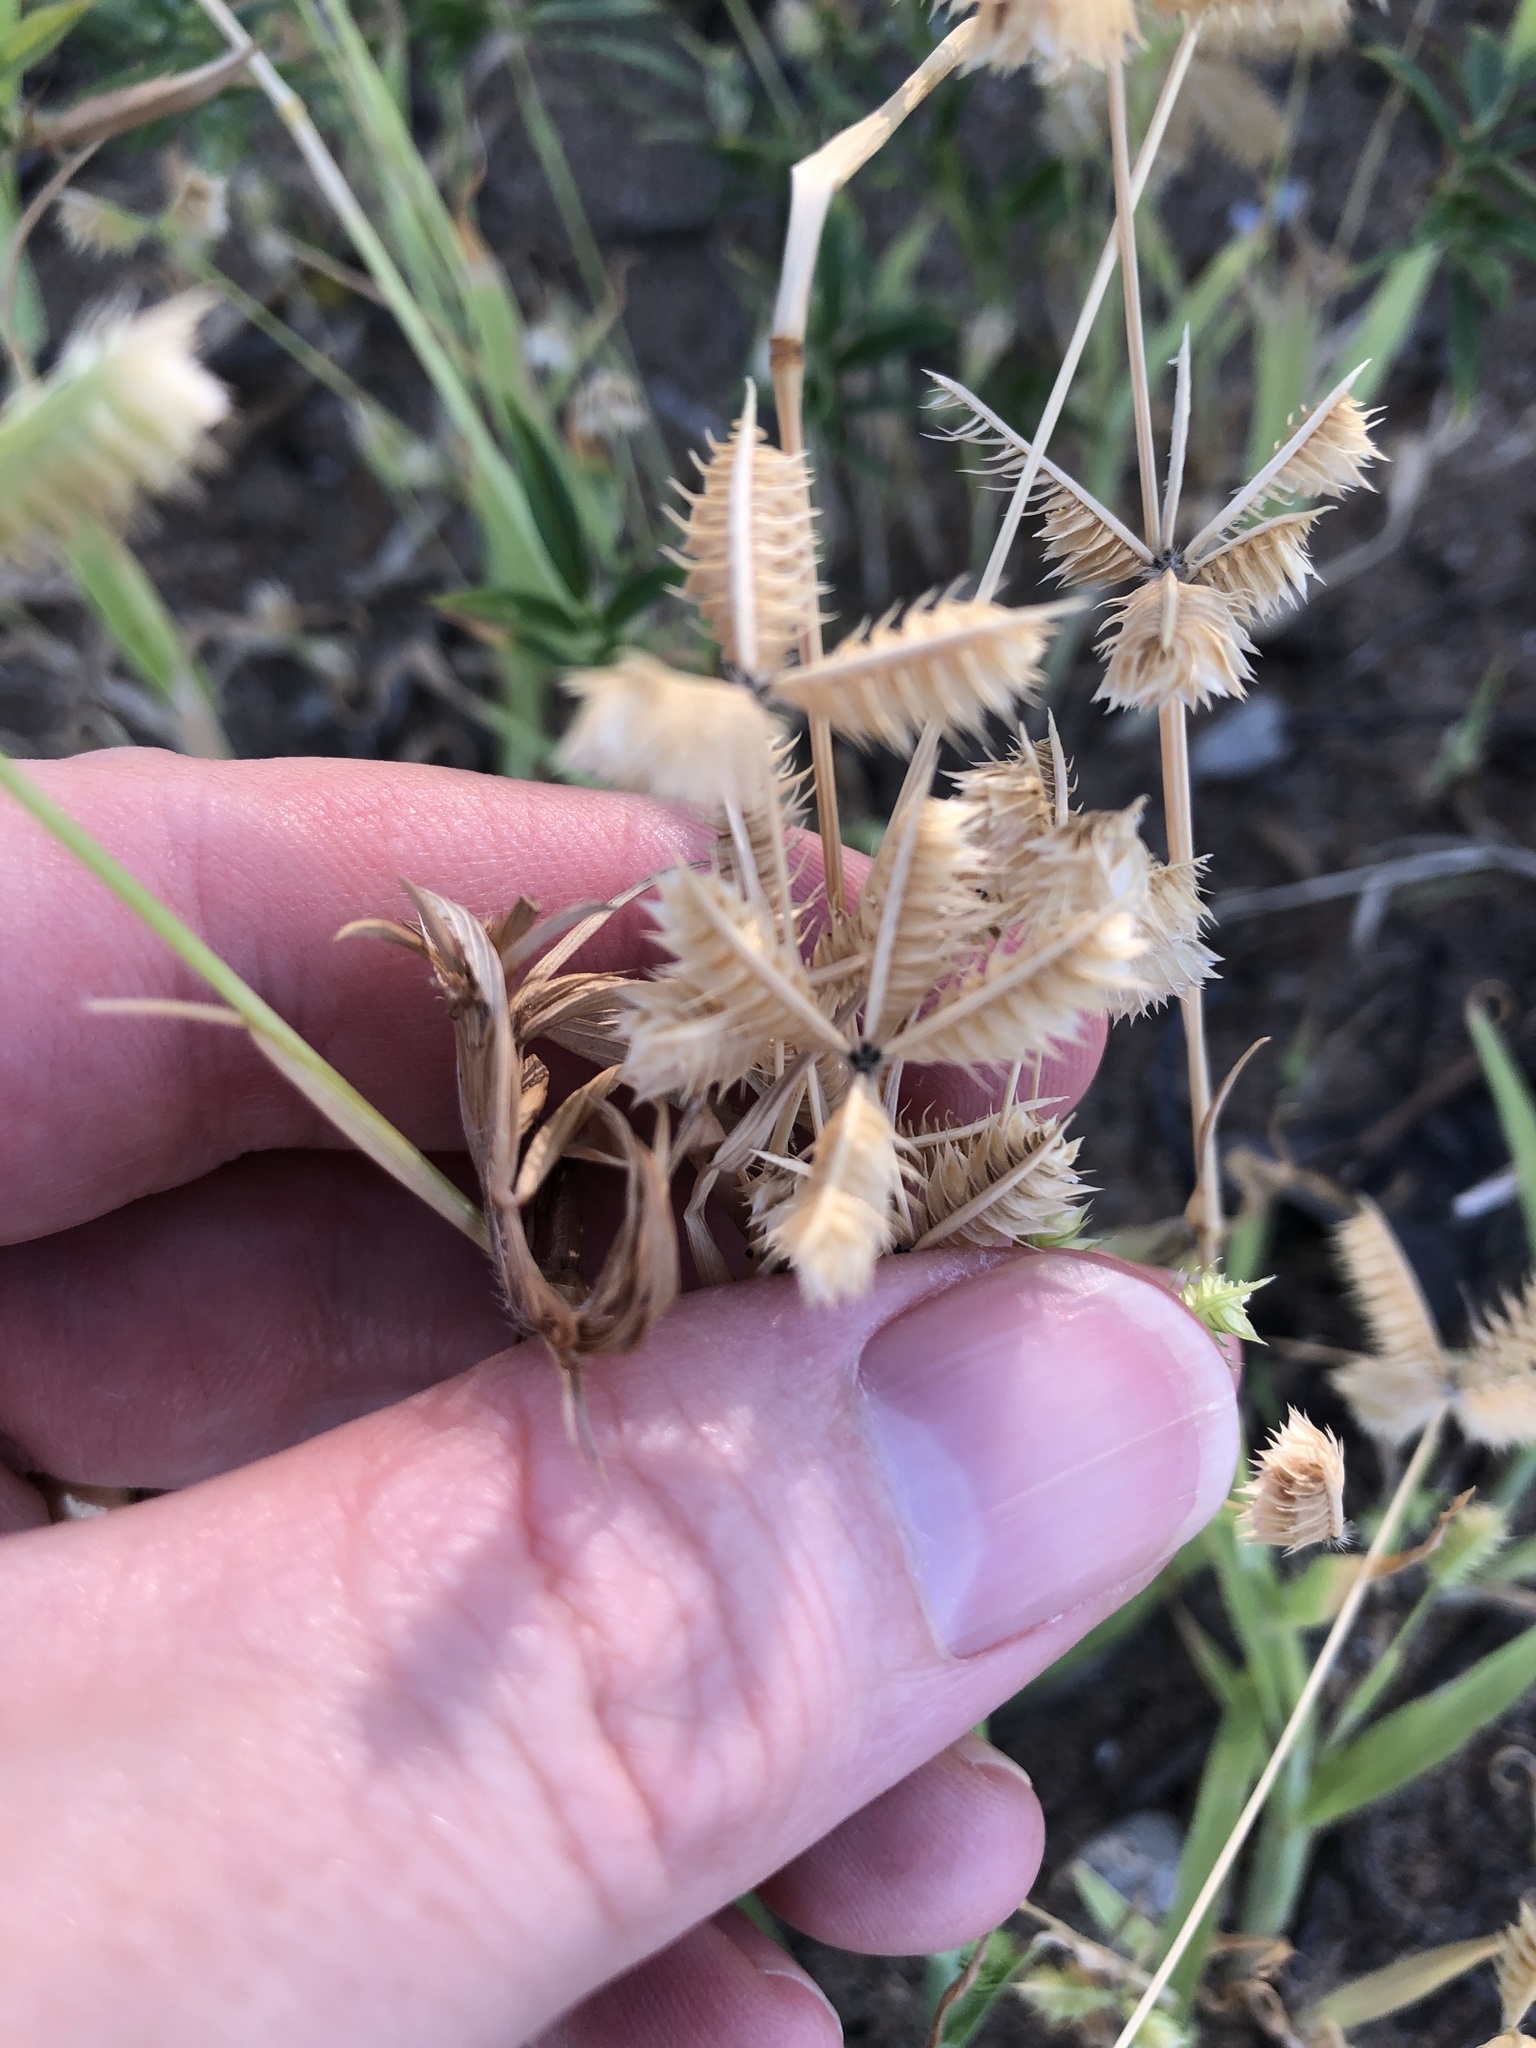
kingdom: Plantae
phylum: Tracheophyta
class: Liliopsida
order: Poales
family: Poaceae
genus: Dactyloctenium
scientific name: Dactyloctenium aegyptium
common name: Egyptian grass
